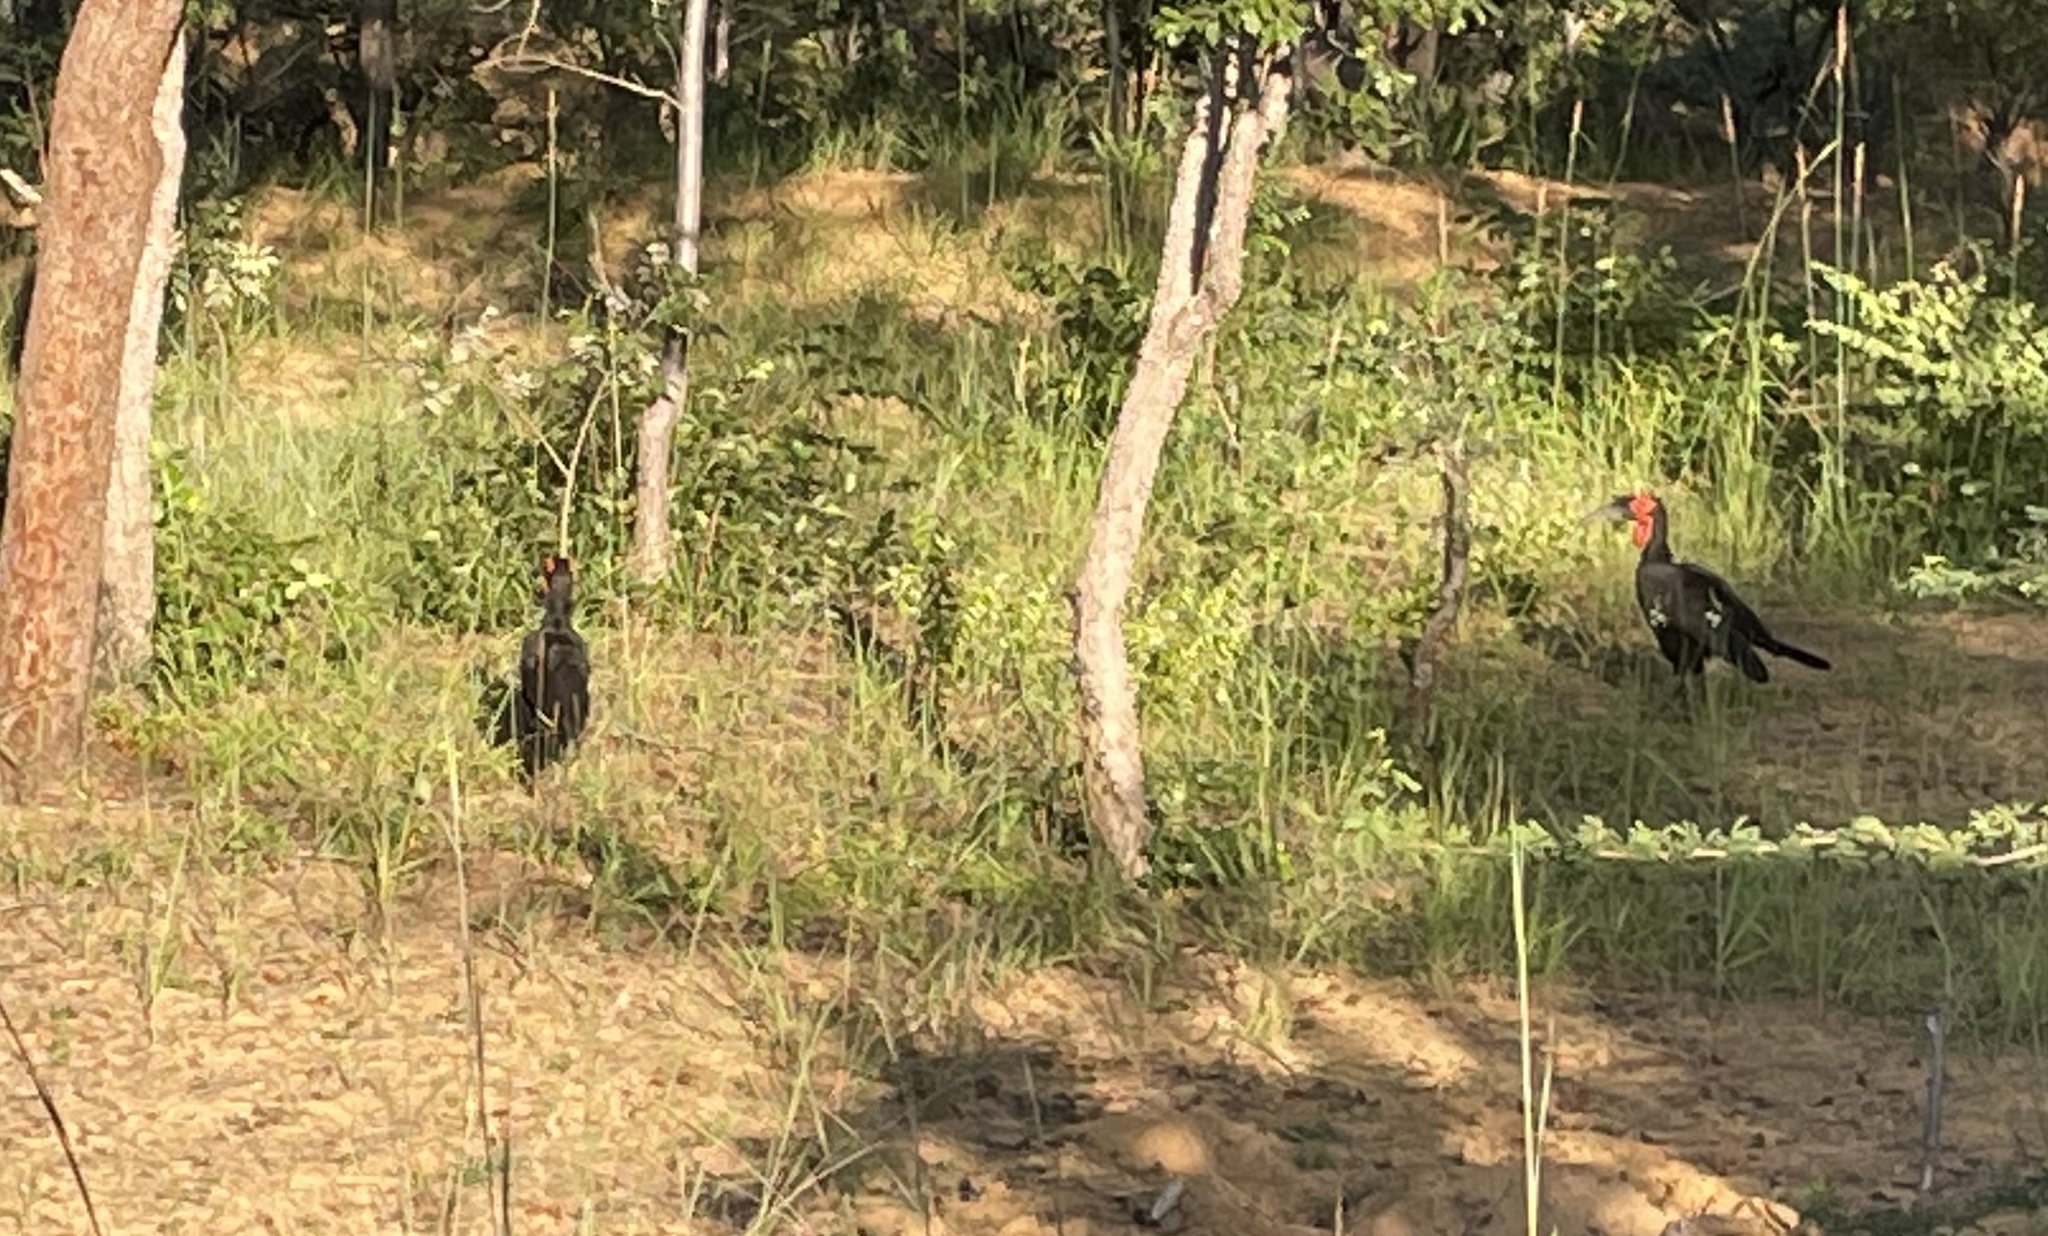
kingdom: Animalia
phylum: Chordata
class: Aves
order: Bucerotiformes
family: Bucorvidae
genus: Bucorvus
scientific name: Bucorvus leadbeateri
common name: Southern ground-hornbill
